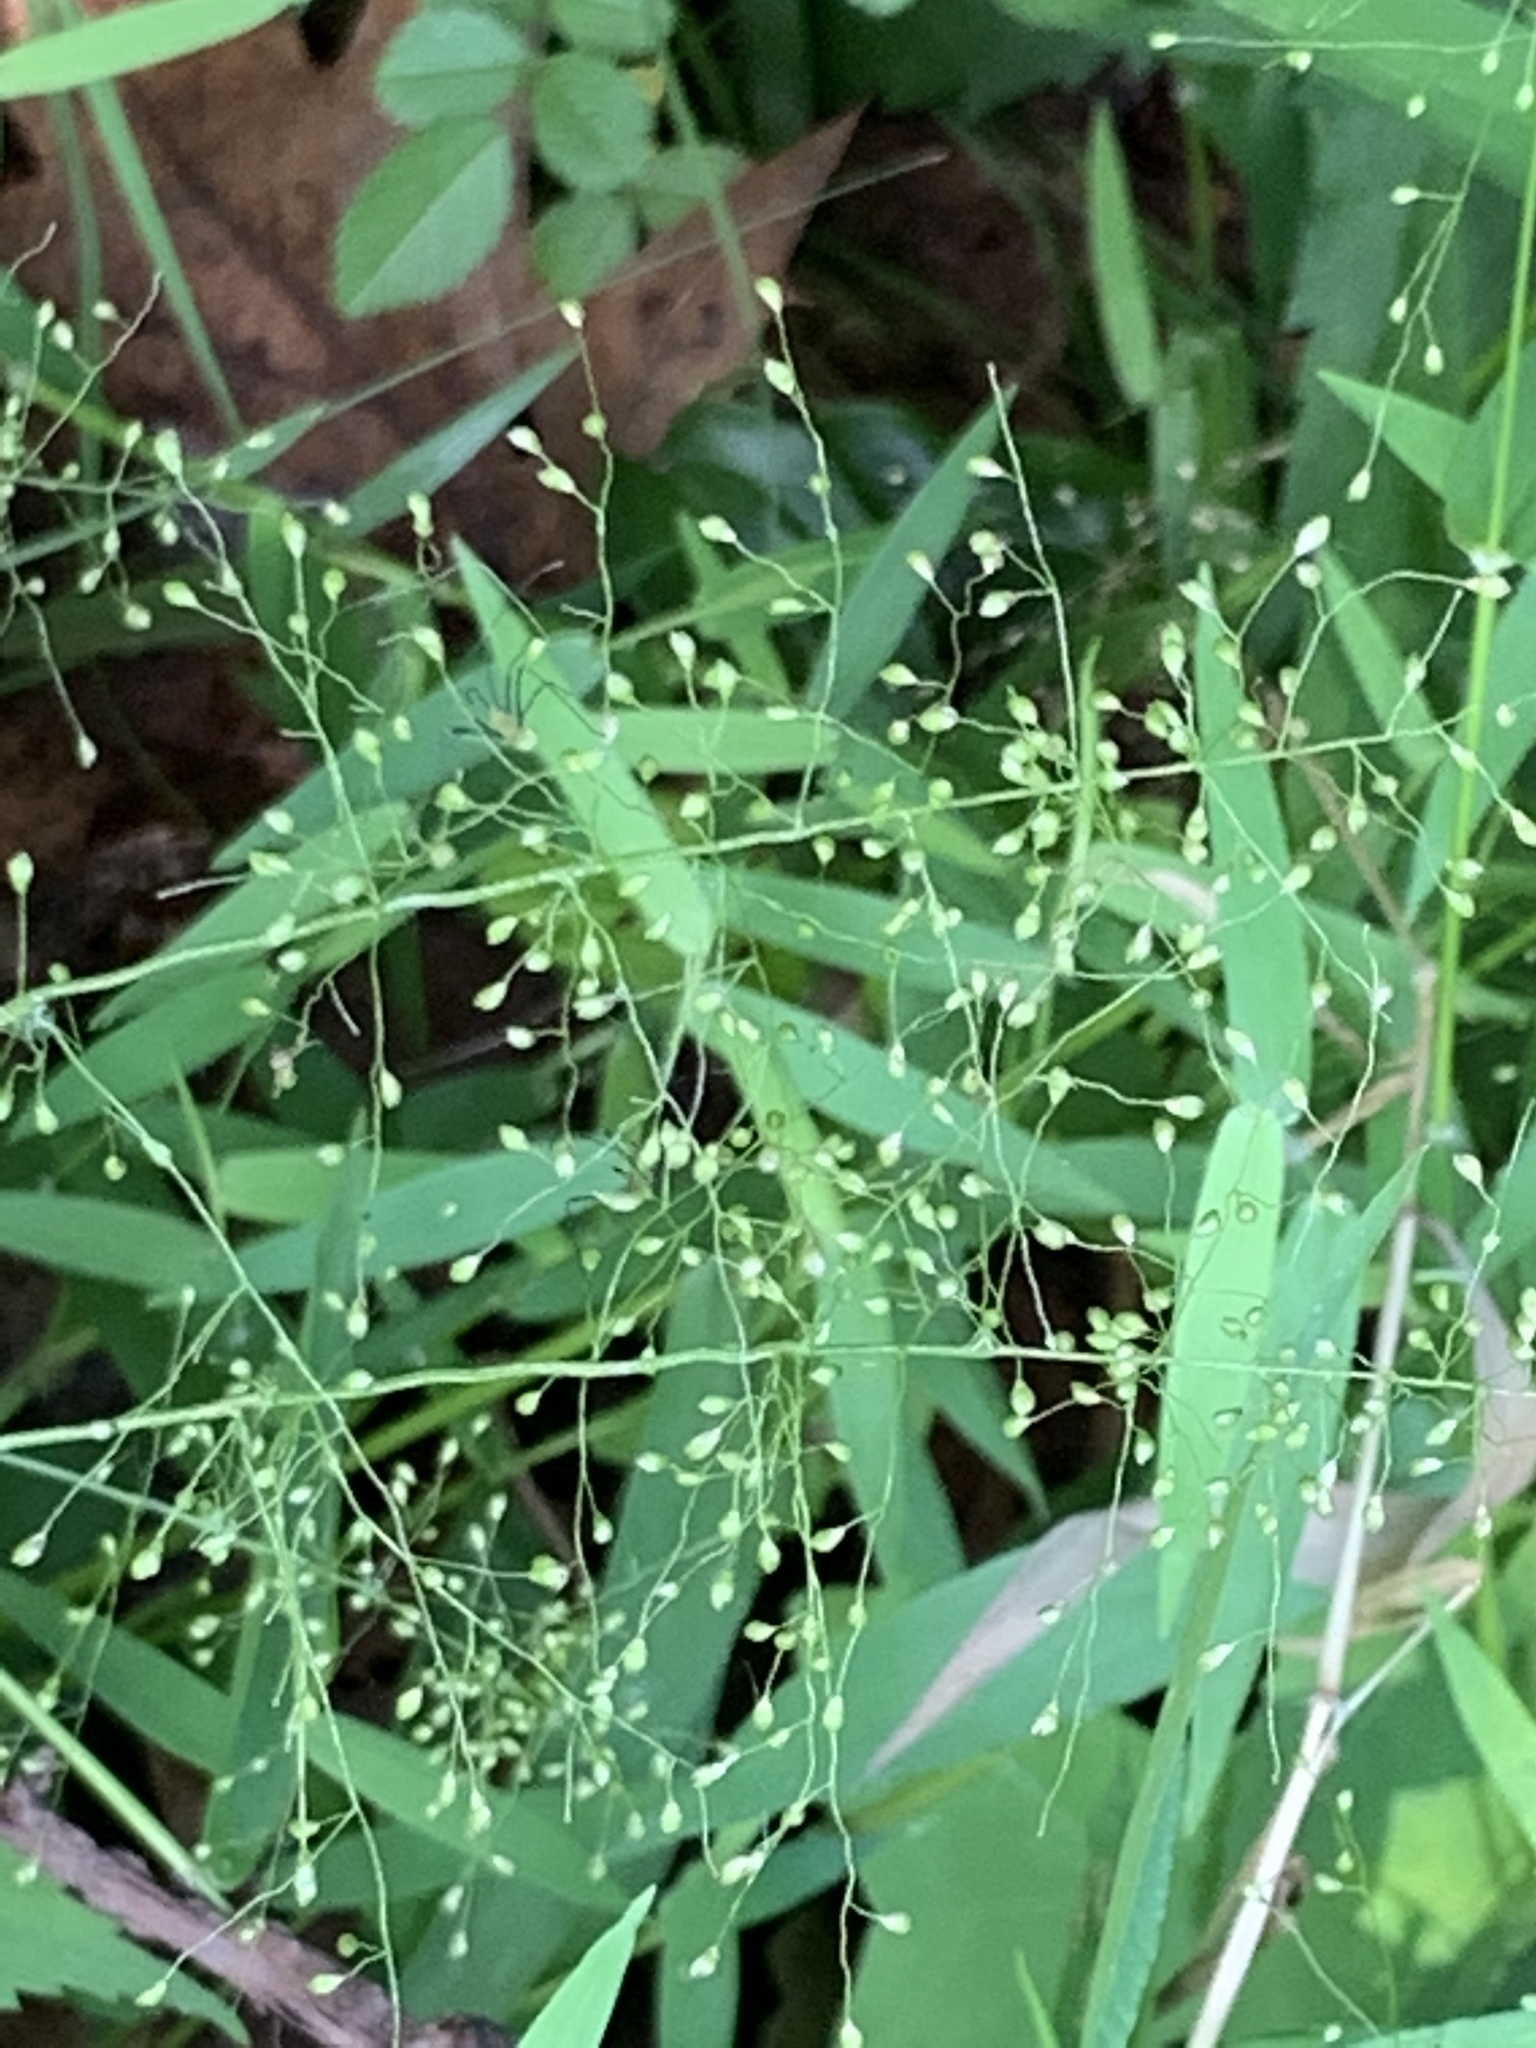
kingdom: Plantae
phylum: Tracheophyta
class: Liliopsida
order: Poales
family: Poaceae
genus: Dichanthelium
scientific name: Dichanthelium clandestinum
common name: Deer-tongue grass
